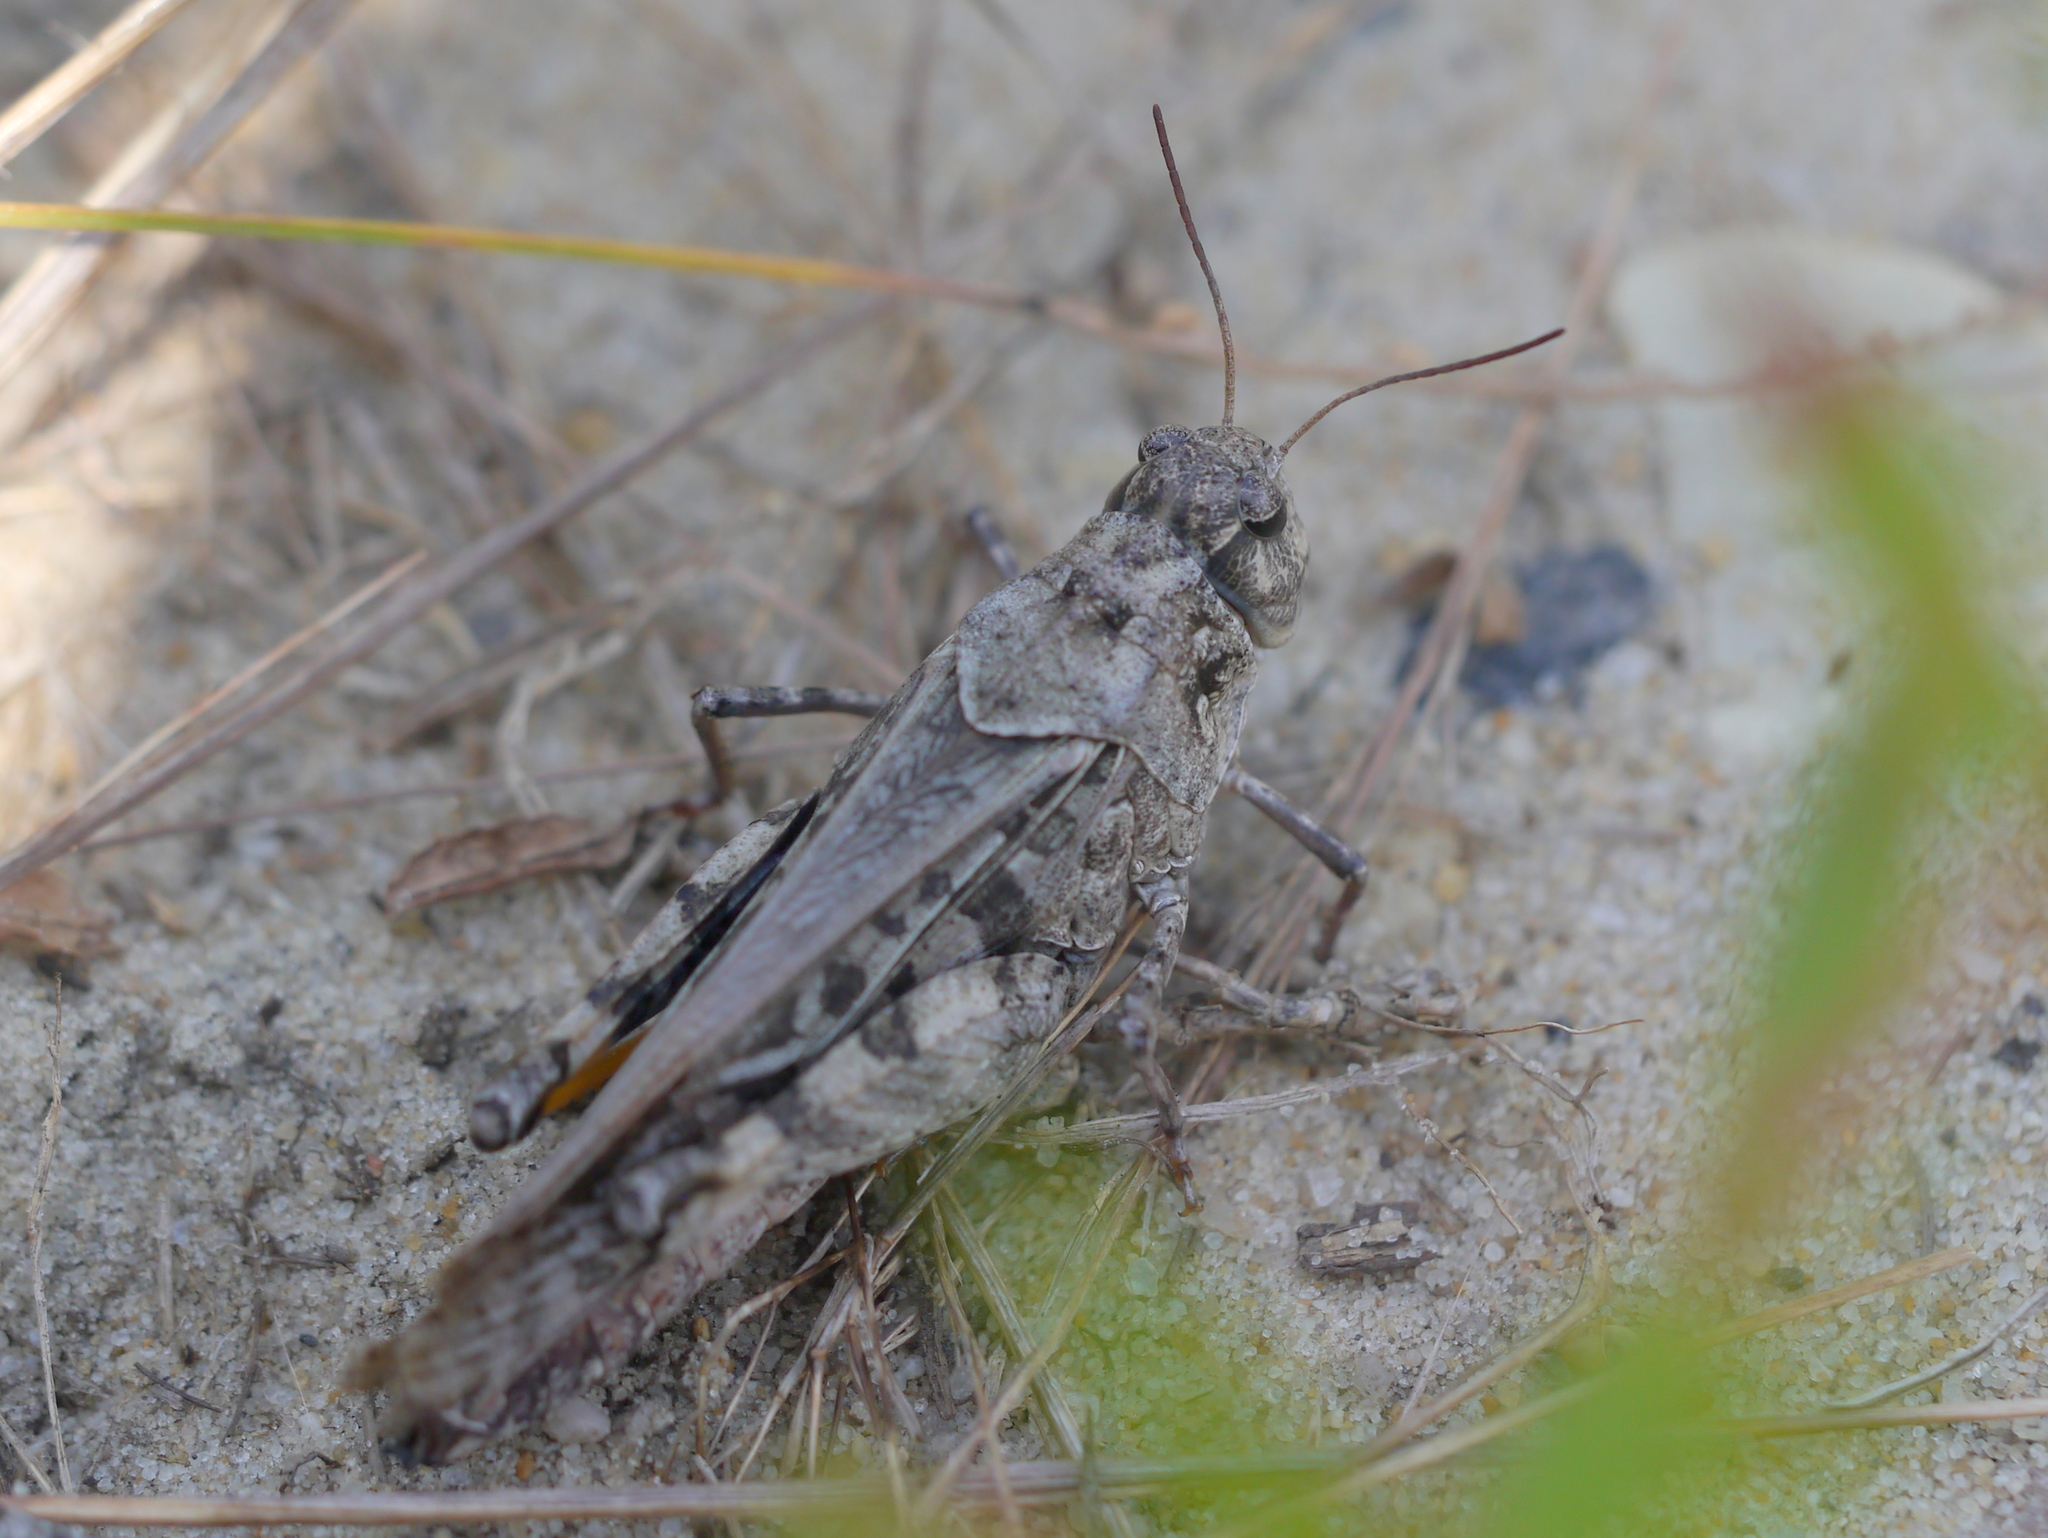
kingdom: Animalia
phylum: Arthropoda
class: Insecta
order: Orthoptera
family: Acrididae
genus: Pardalophora
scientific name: Pardalophora phoenicoptera
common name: Orange-winged grasshopper
